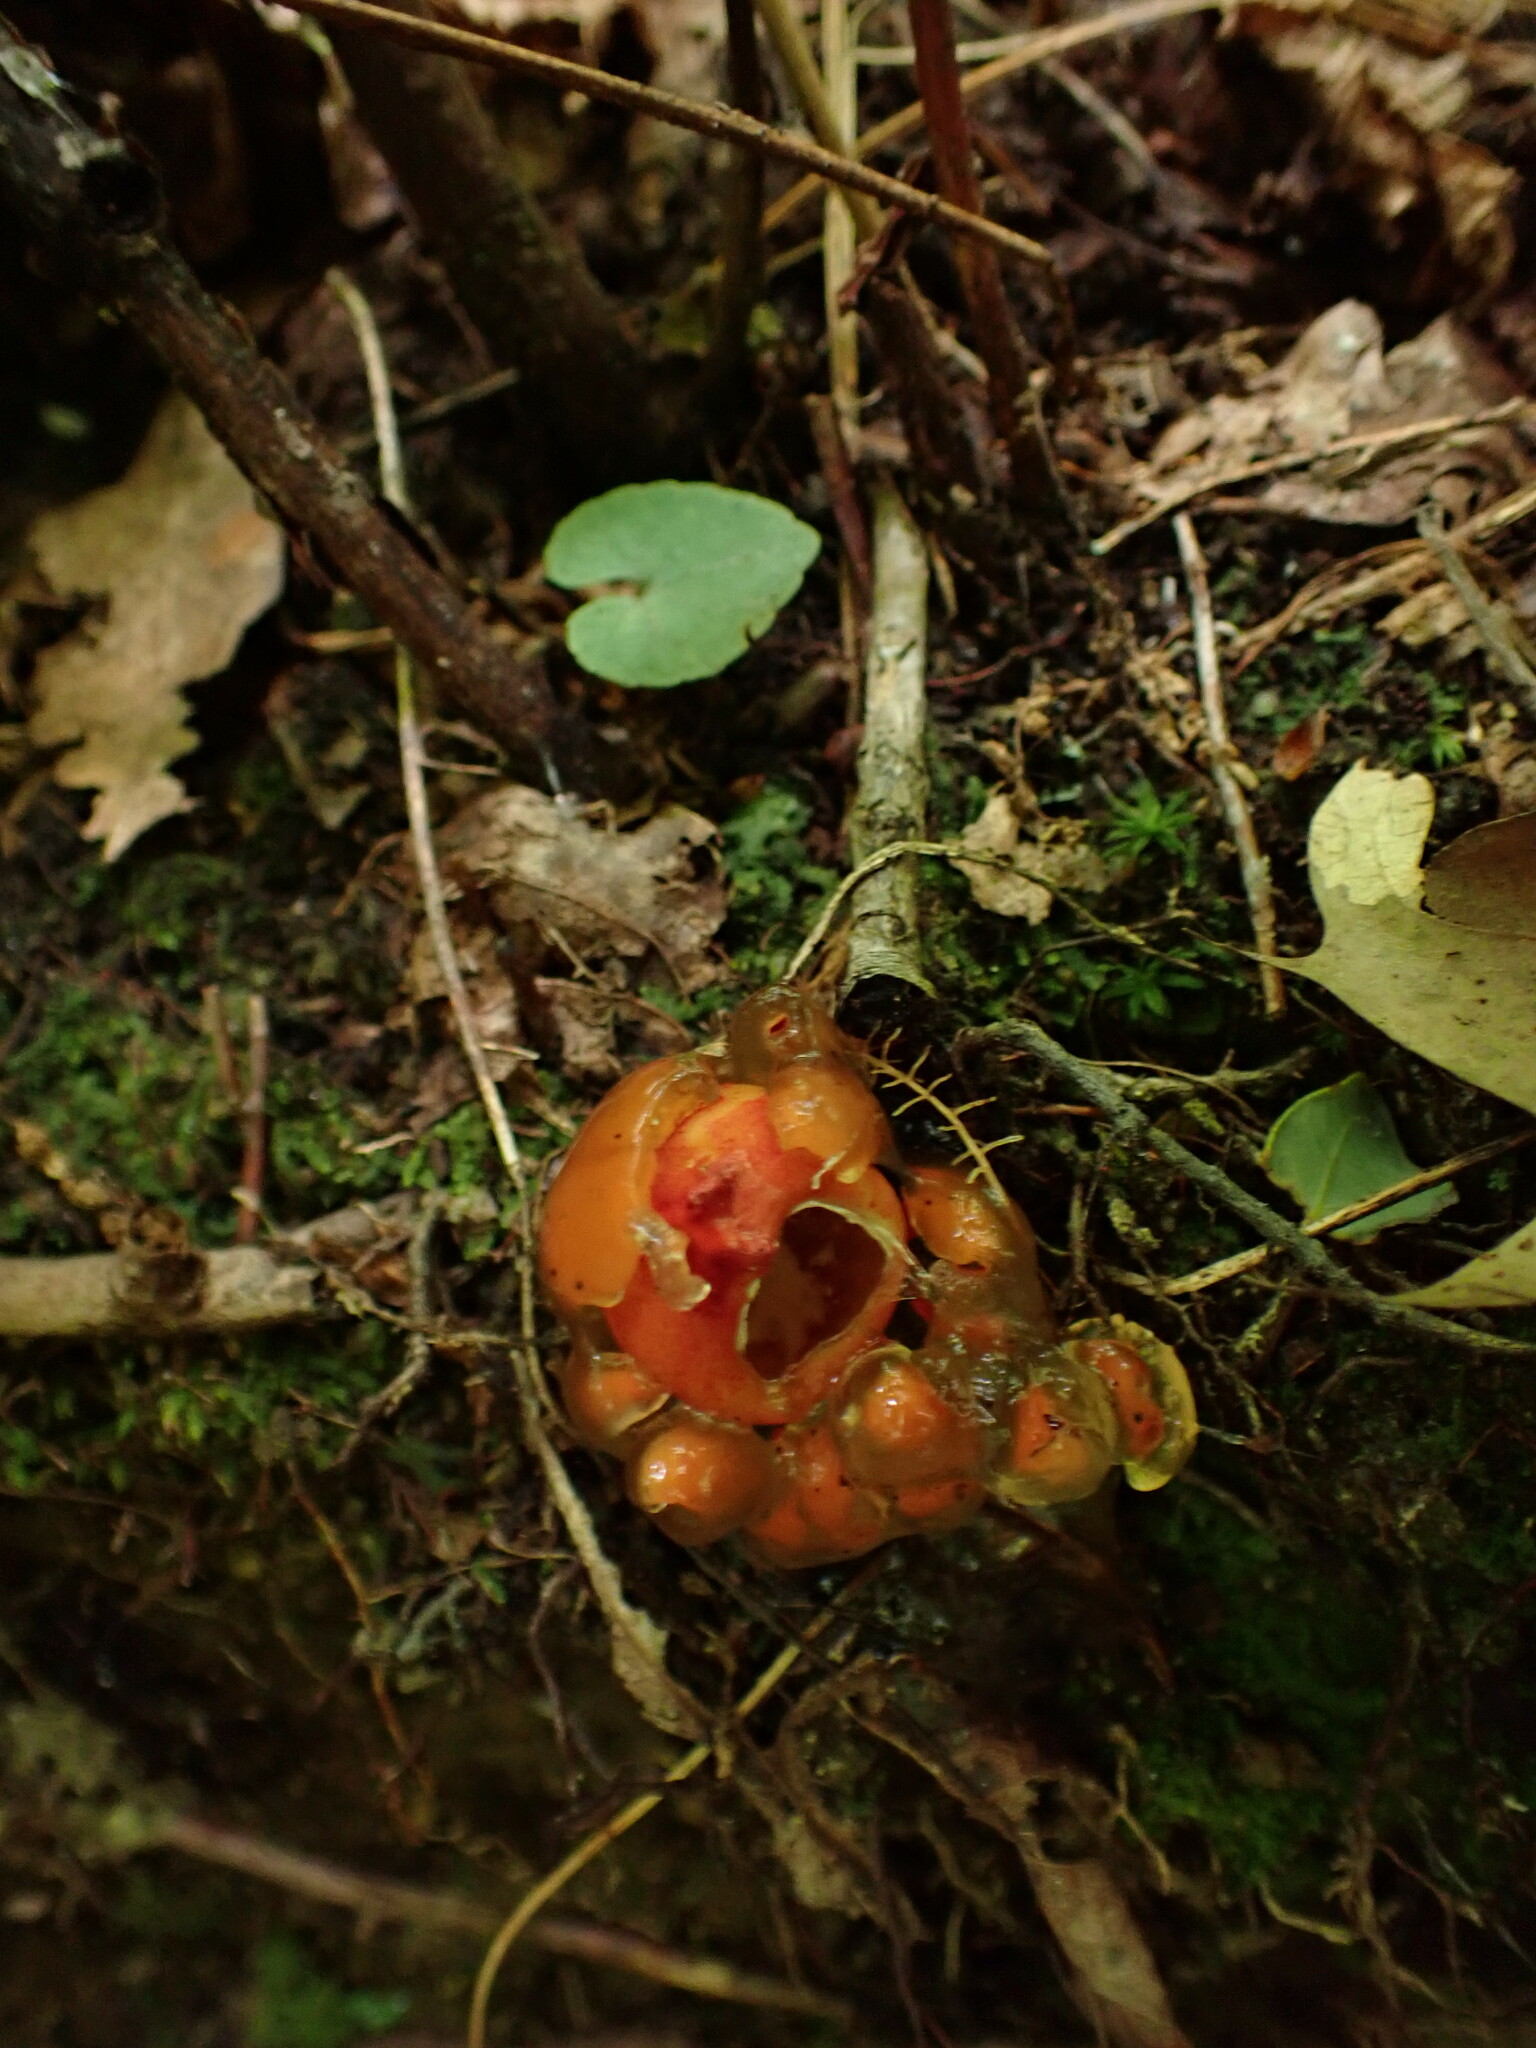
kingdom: Fungi
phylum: Basidiomycota
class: Agaricomycetes
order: Boletales
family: Calostomataceae
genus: Calostoma
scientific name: Calostoma cinnabarinum
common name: Stalked puffball-in-aspic
